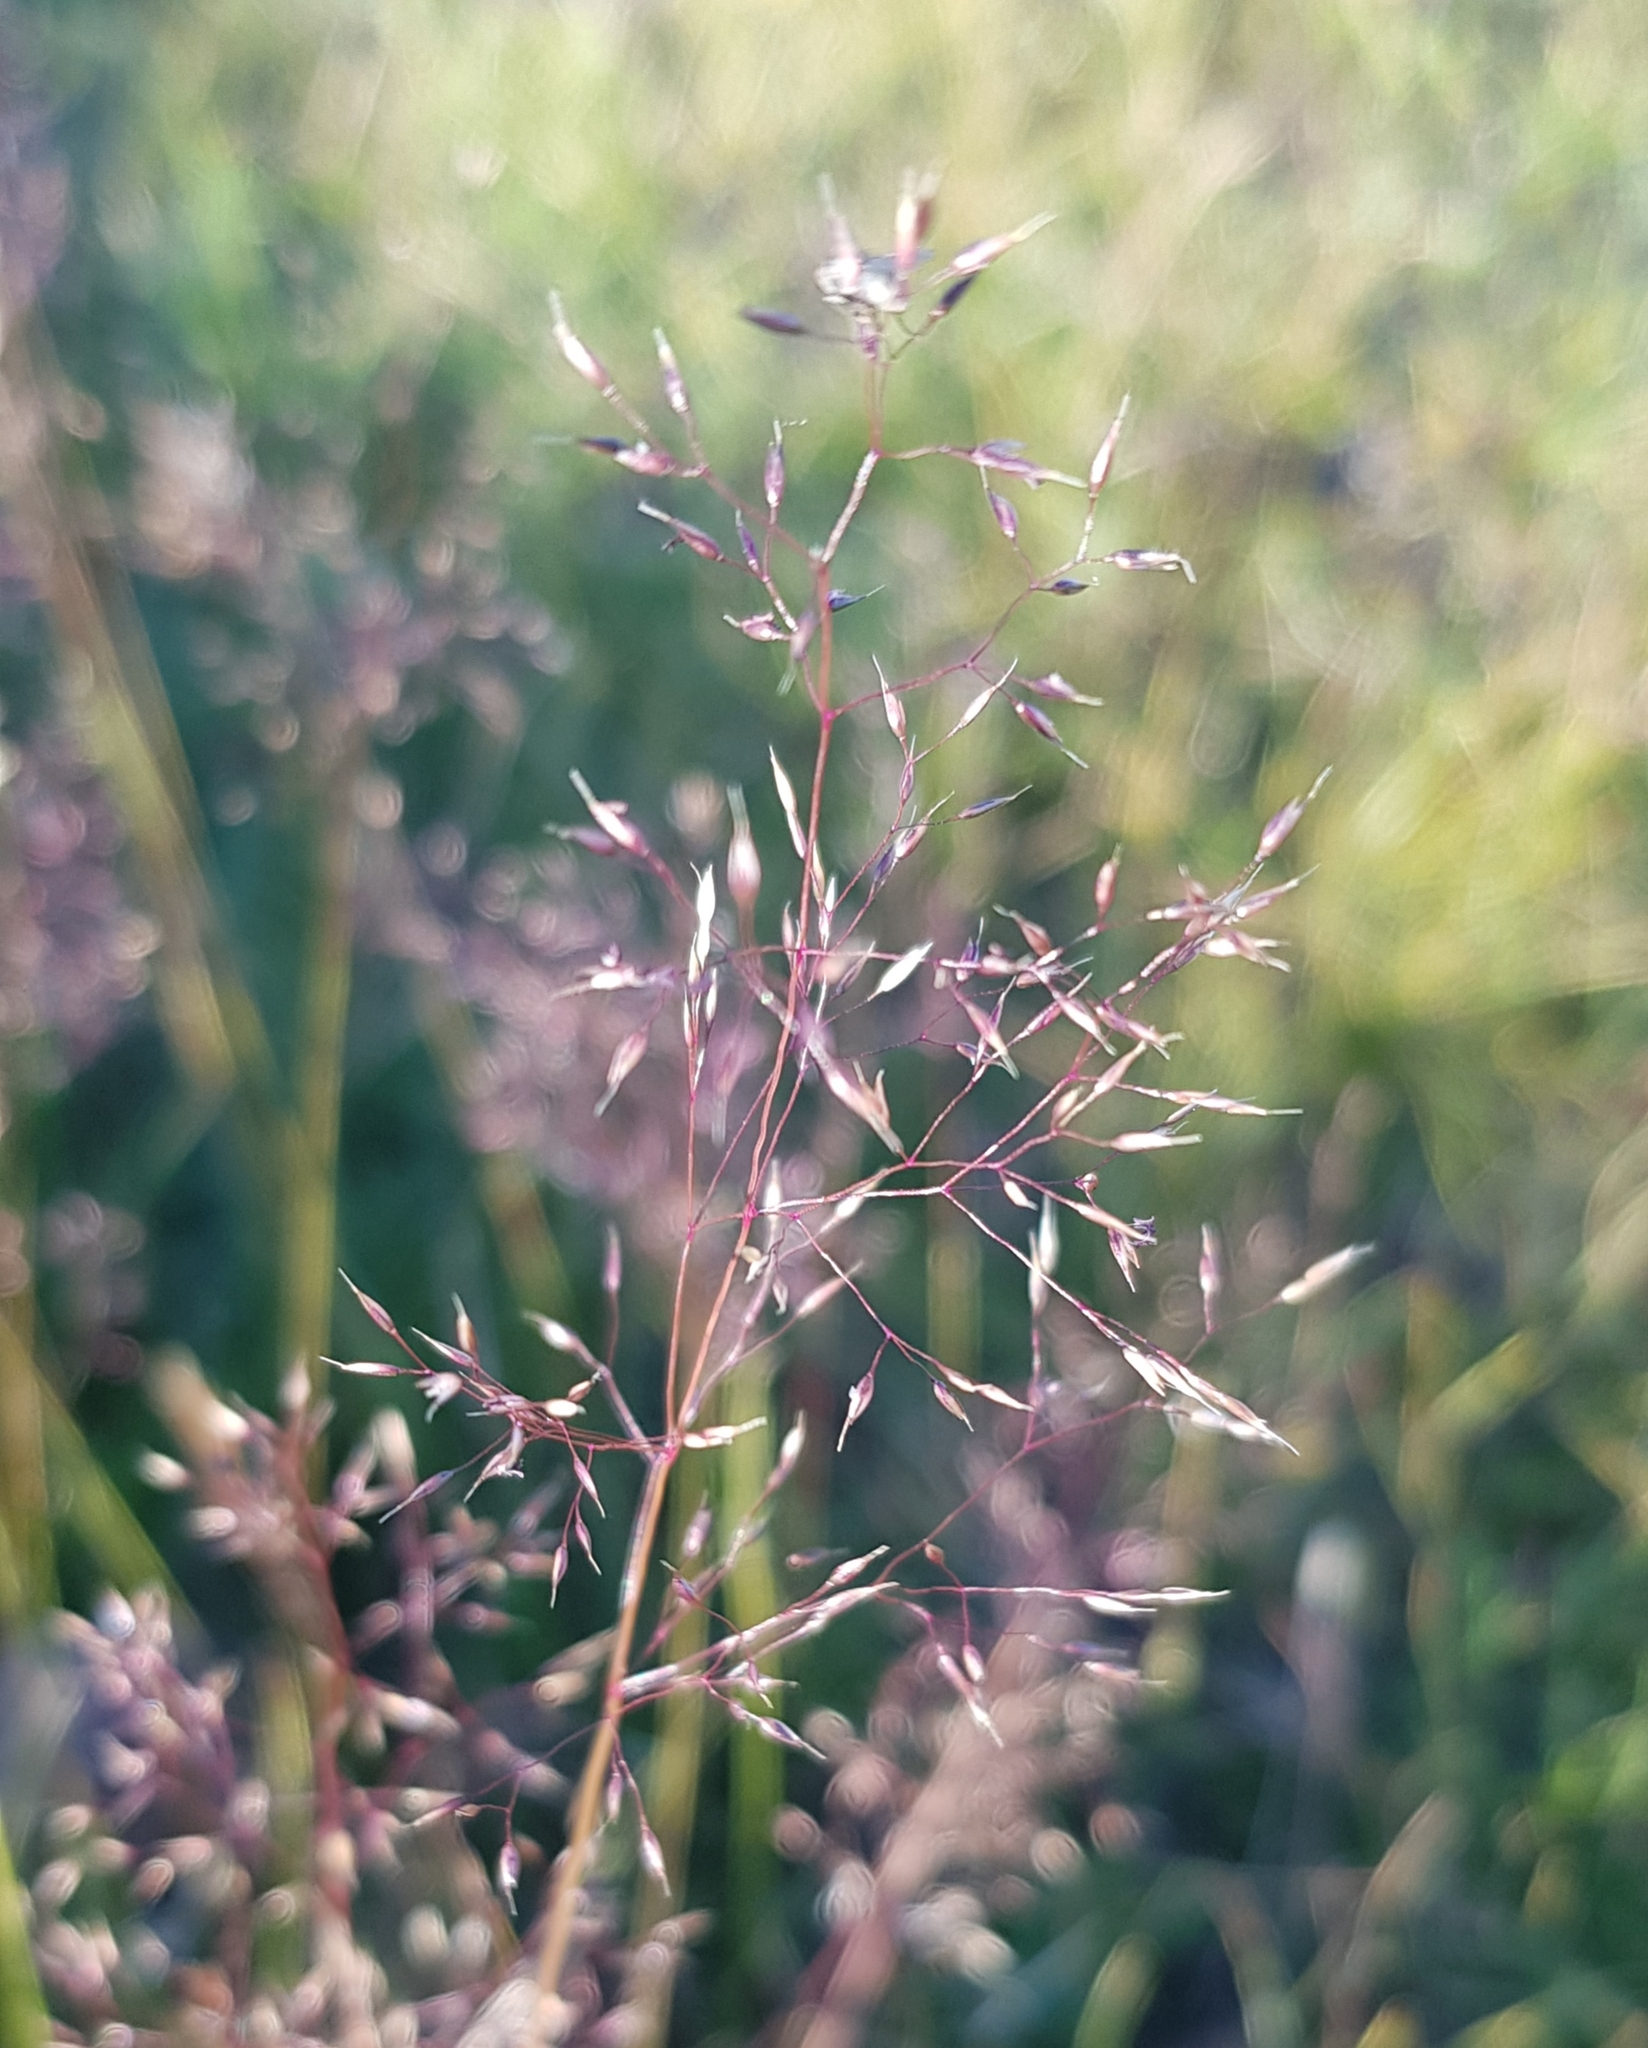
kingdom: Plantae
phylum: Tracheophyta
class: Liliopsida
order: Poales
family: Poaceae
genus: Agrostis
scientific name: Agrostis vinealis
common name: Brown bent
